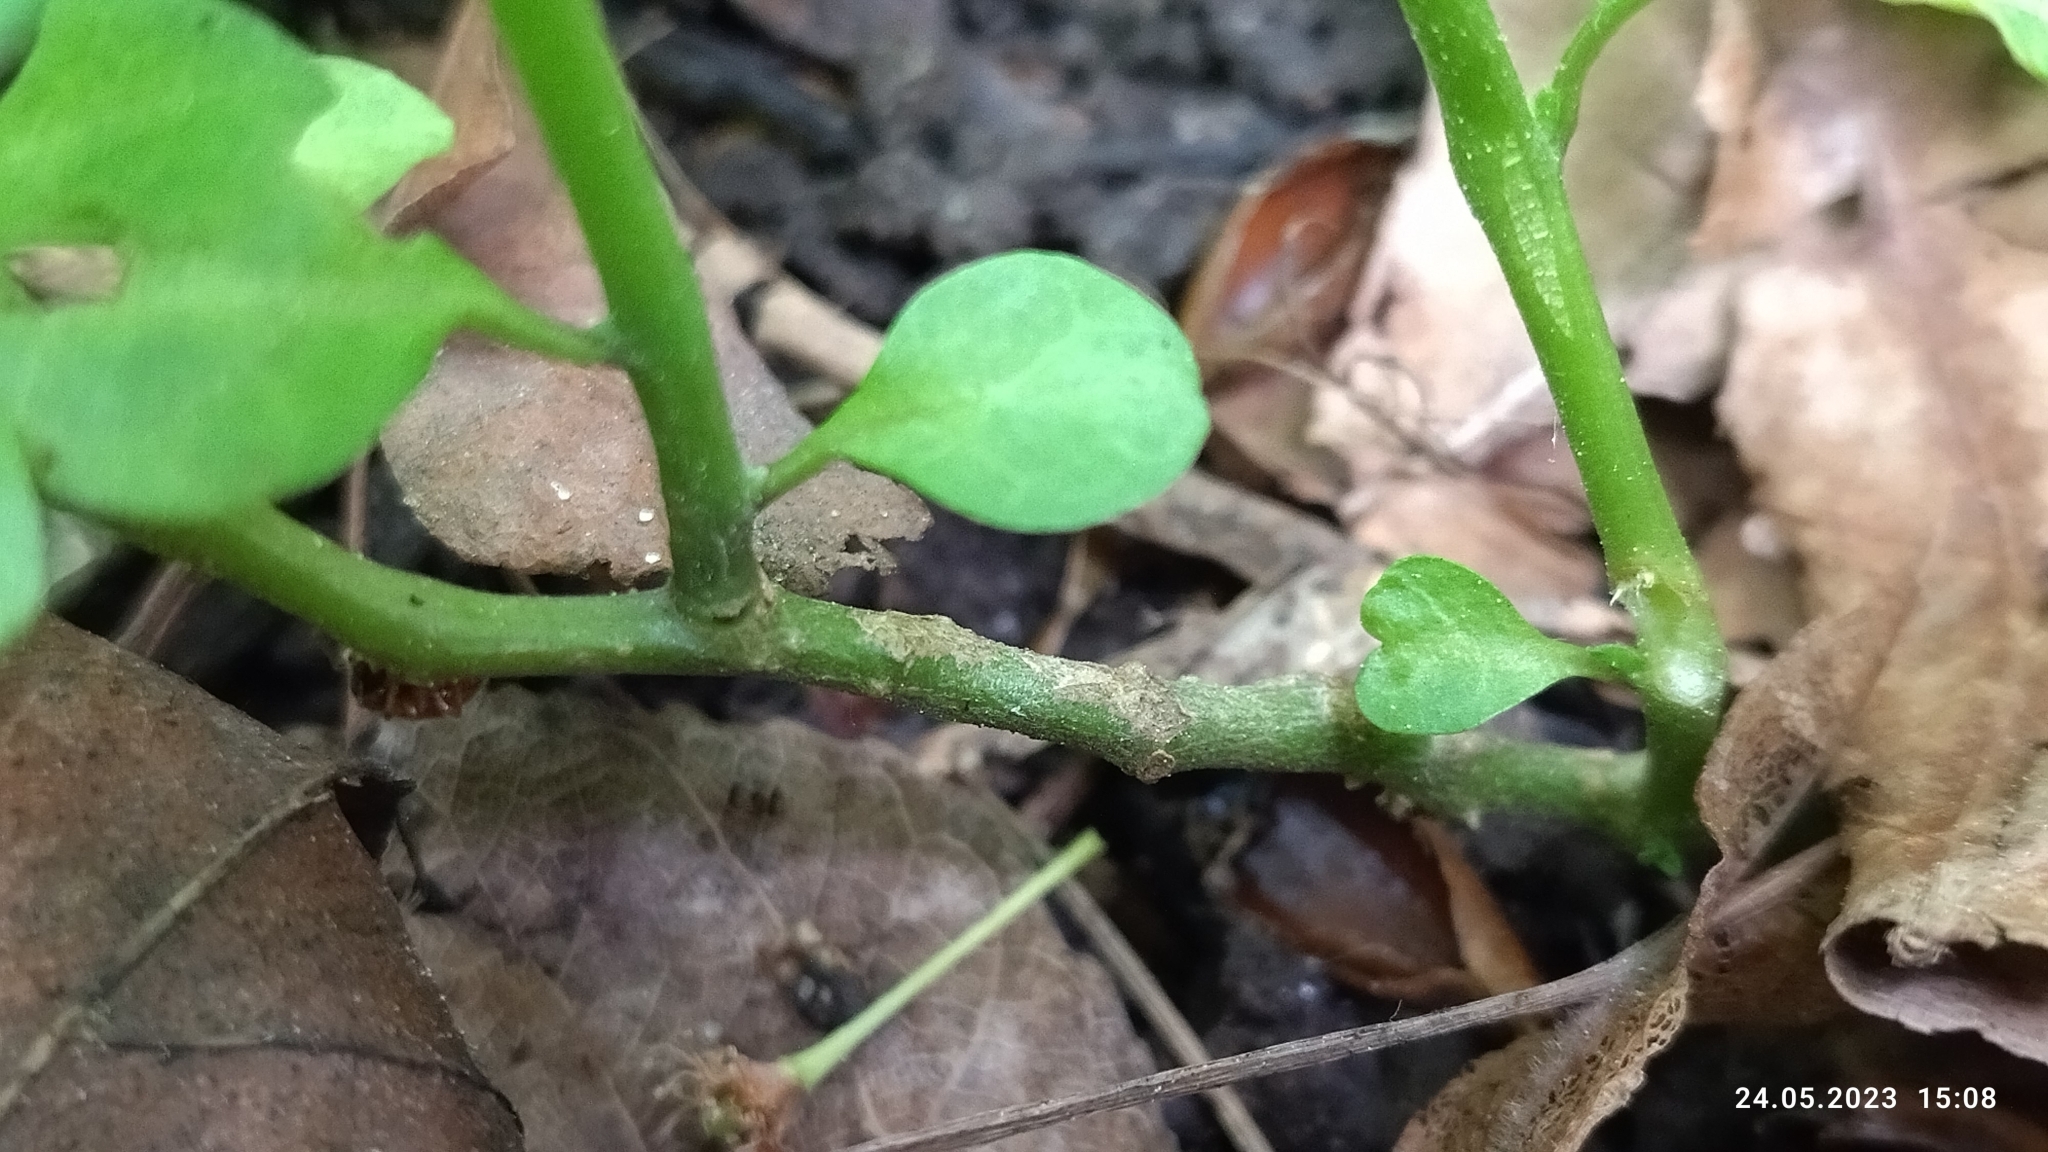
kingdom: Plantae
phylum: Tracheophyta
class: Magnoliopsida
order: Solanales
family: Solanaceae
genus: Solanum
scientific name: Solanum dulcamara
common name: Climbing nightshade
